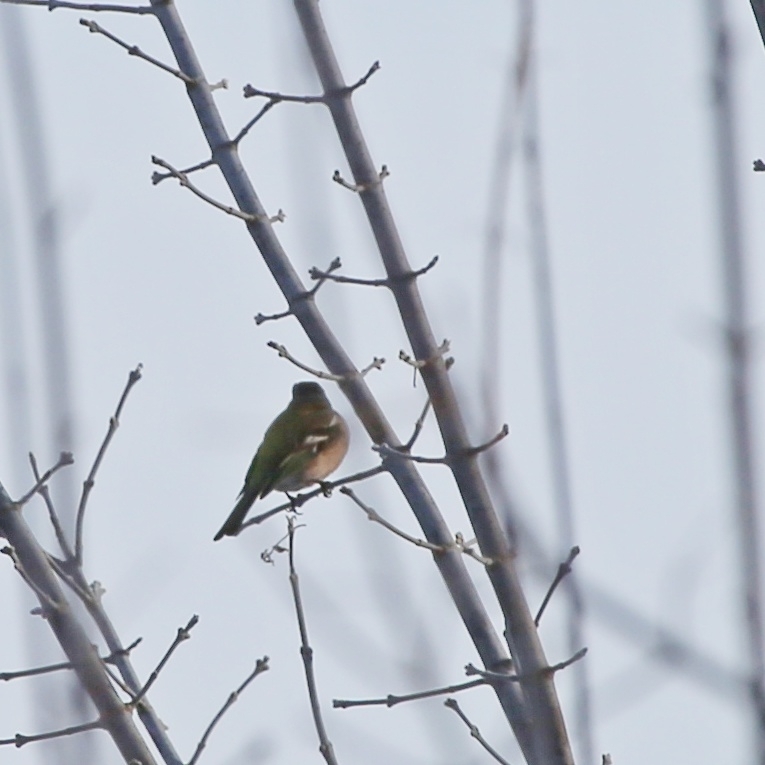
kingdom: Animalia
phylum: Chordata
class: Aves
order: Passeriformes
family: Fringillidae
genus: Fringilla
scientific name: Fringilla coelebs
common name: Common chaffinch
